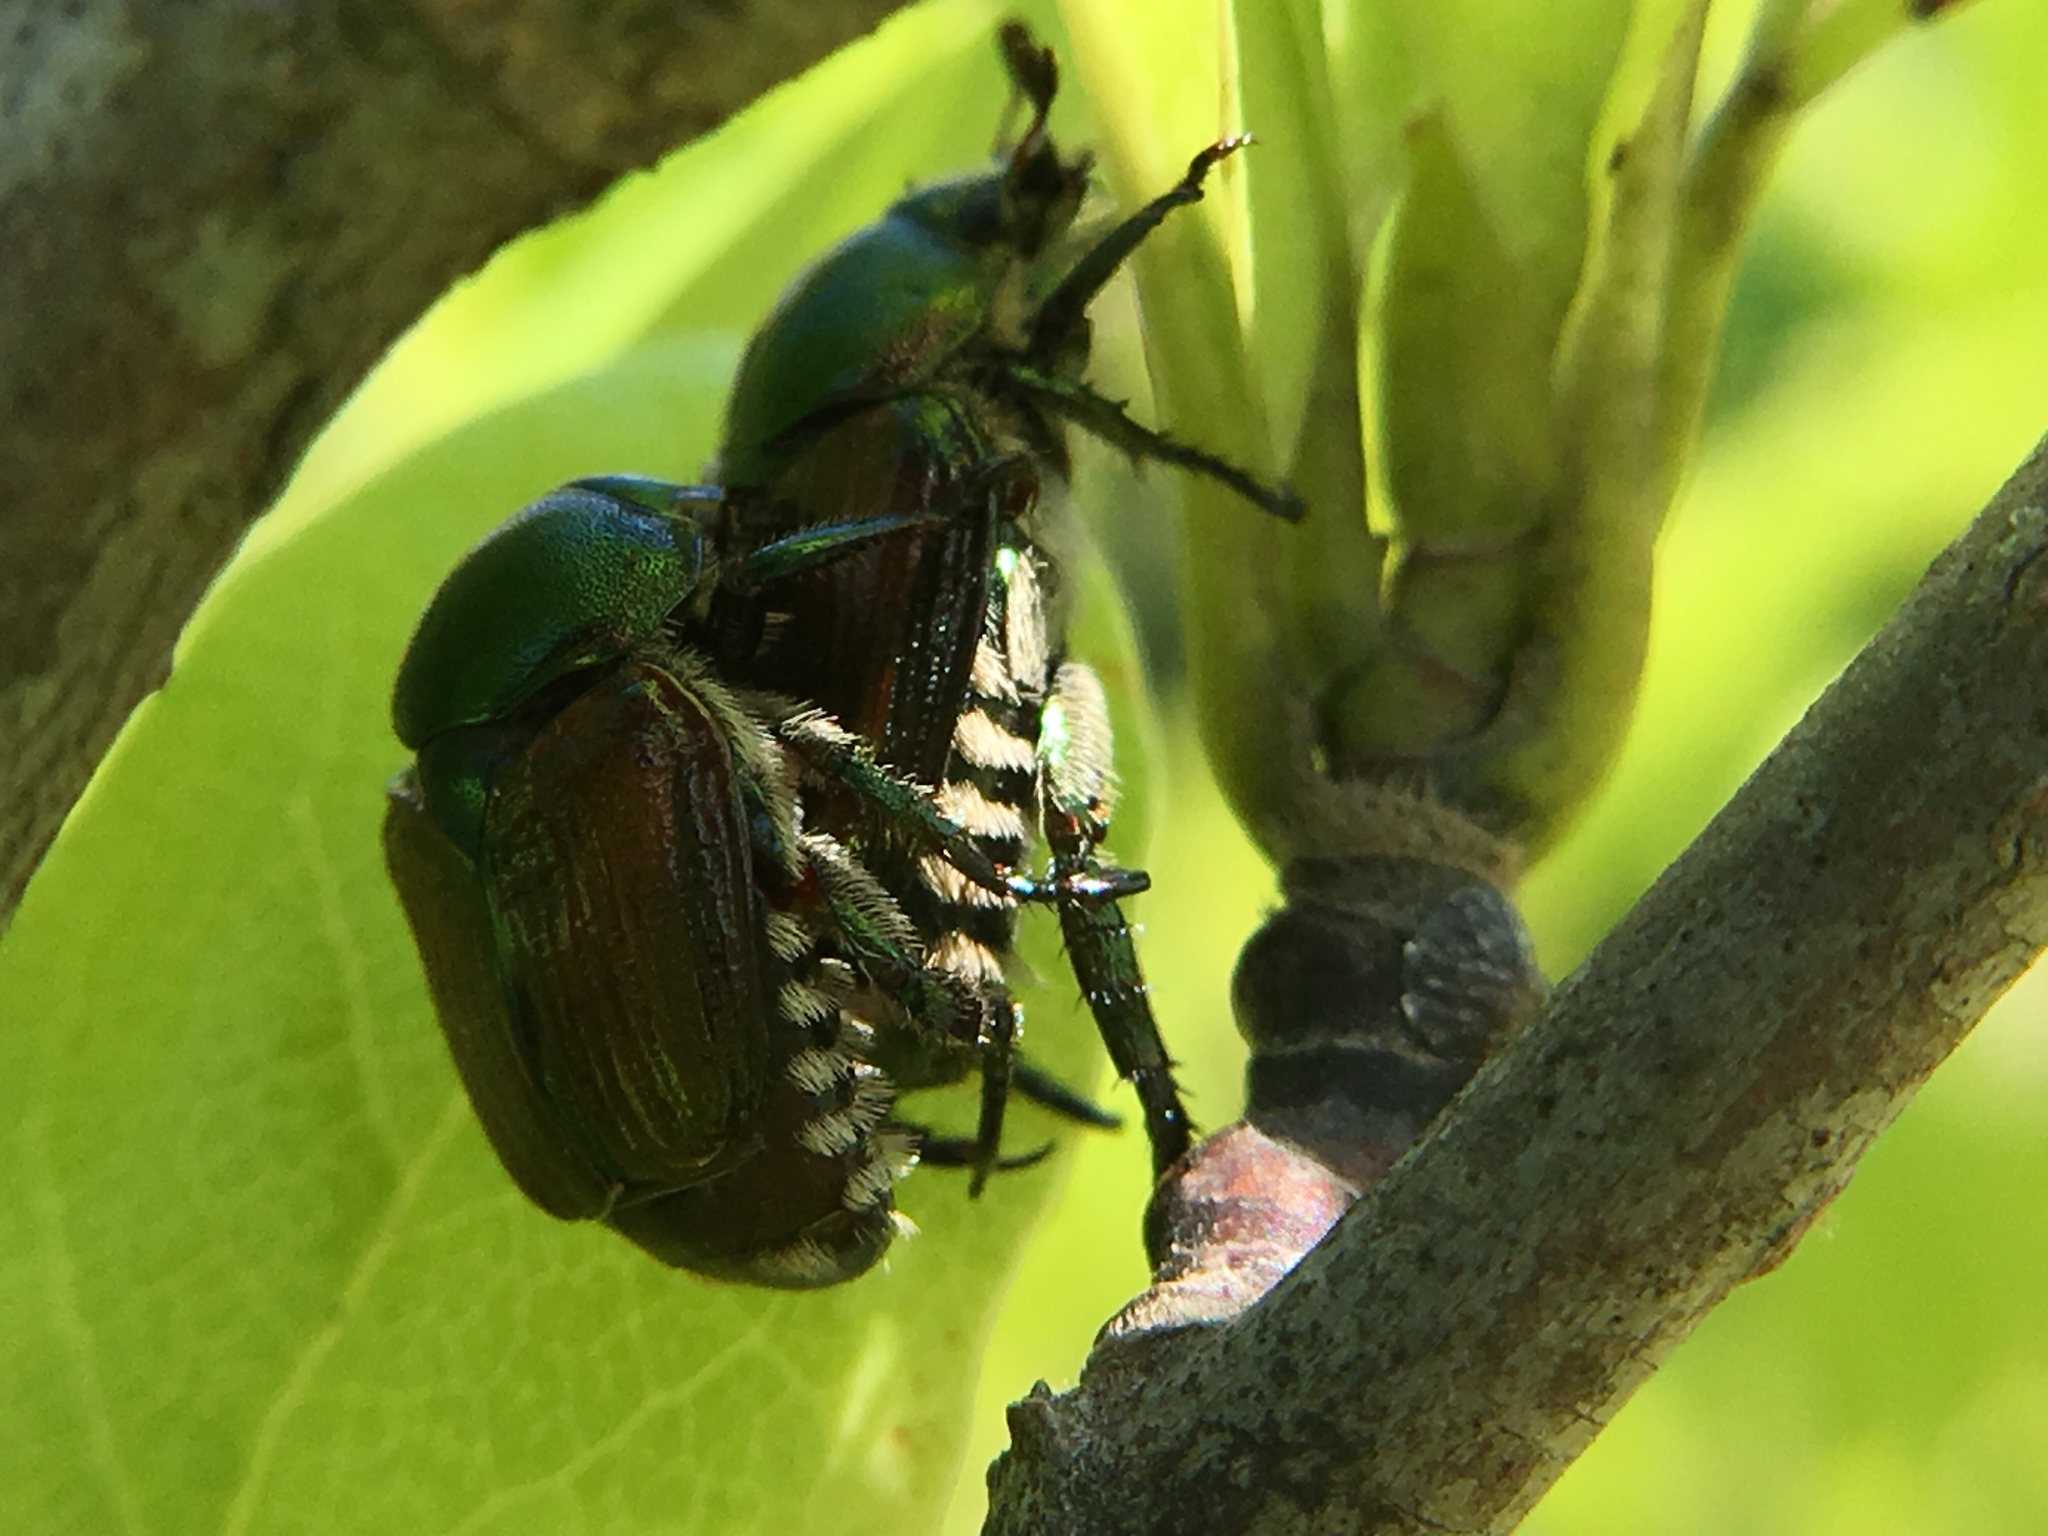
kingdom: Animalia
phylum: Arthropoda
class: Insecta
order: Coleoptera
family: Scarabaeidae
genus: Popillia
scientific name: Popillia japonica
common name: Japanese beetle
